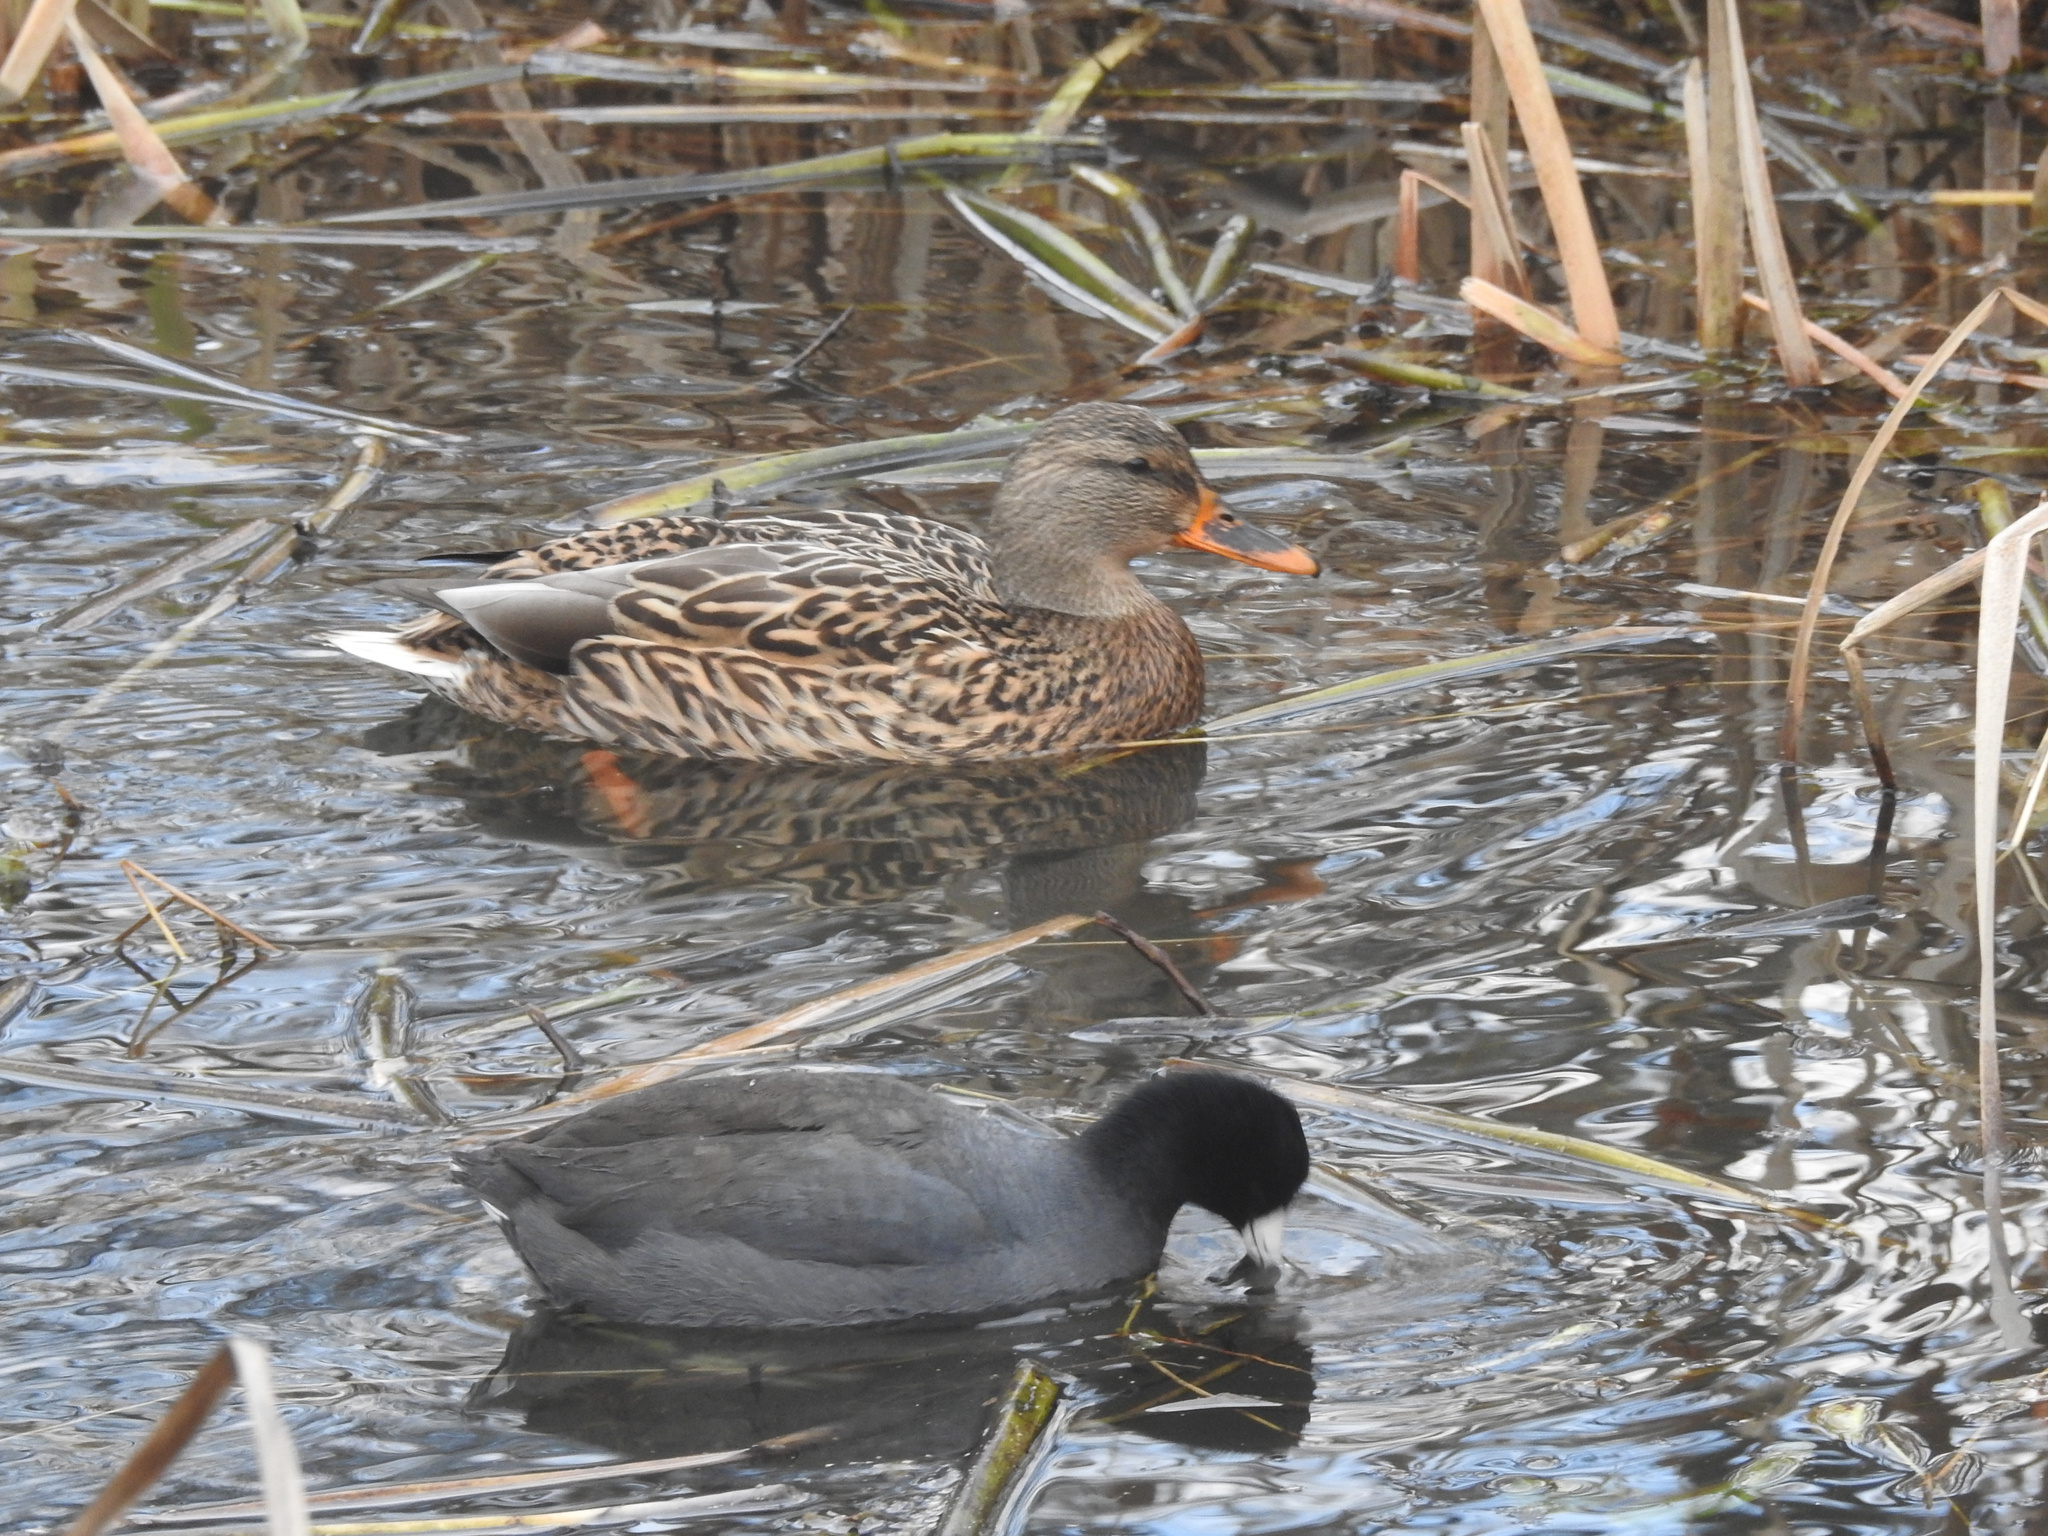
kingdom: Animalia
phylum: Chordata
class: Aves
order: Anseriformes
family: Anatidae
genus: Anas
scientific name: Anas platyrhynchos
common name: Mallard
